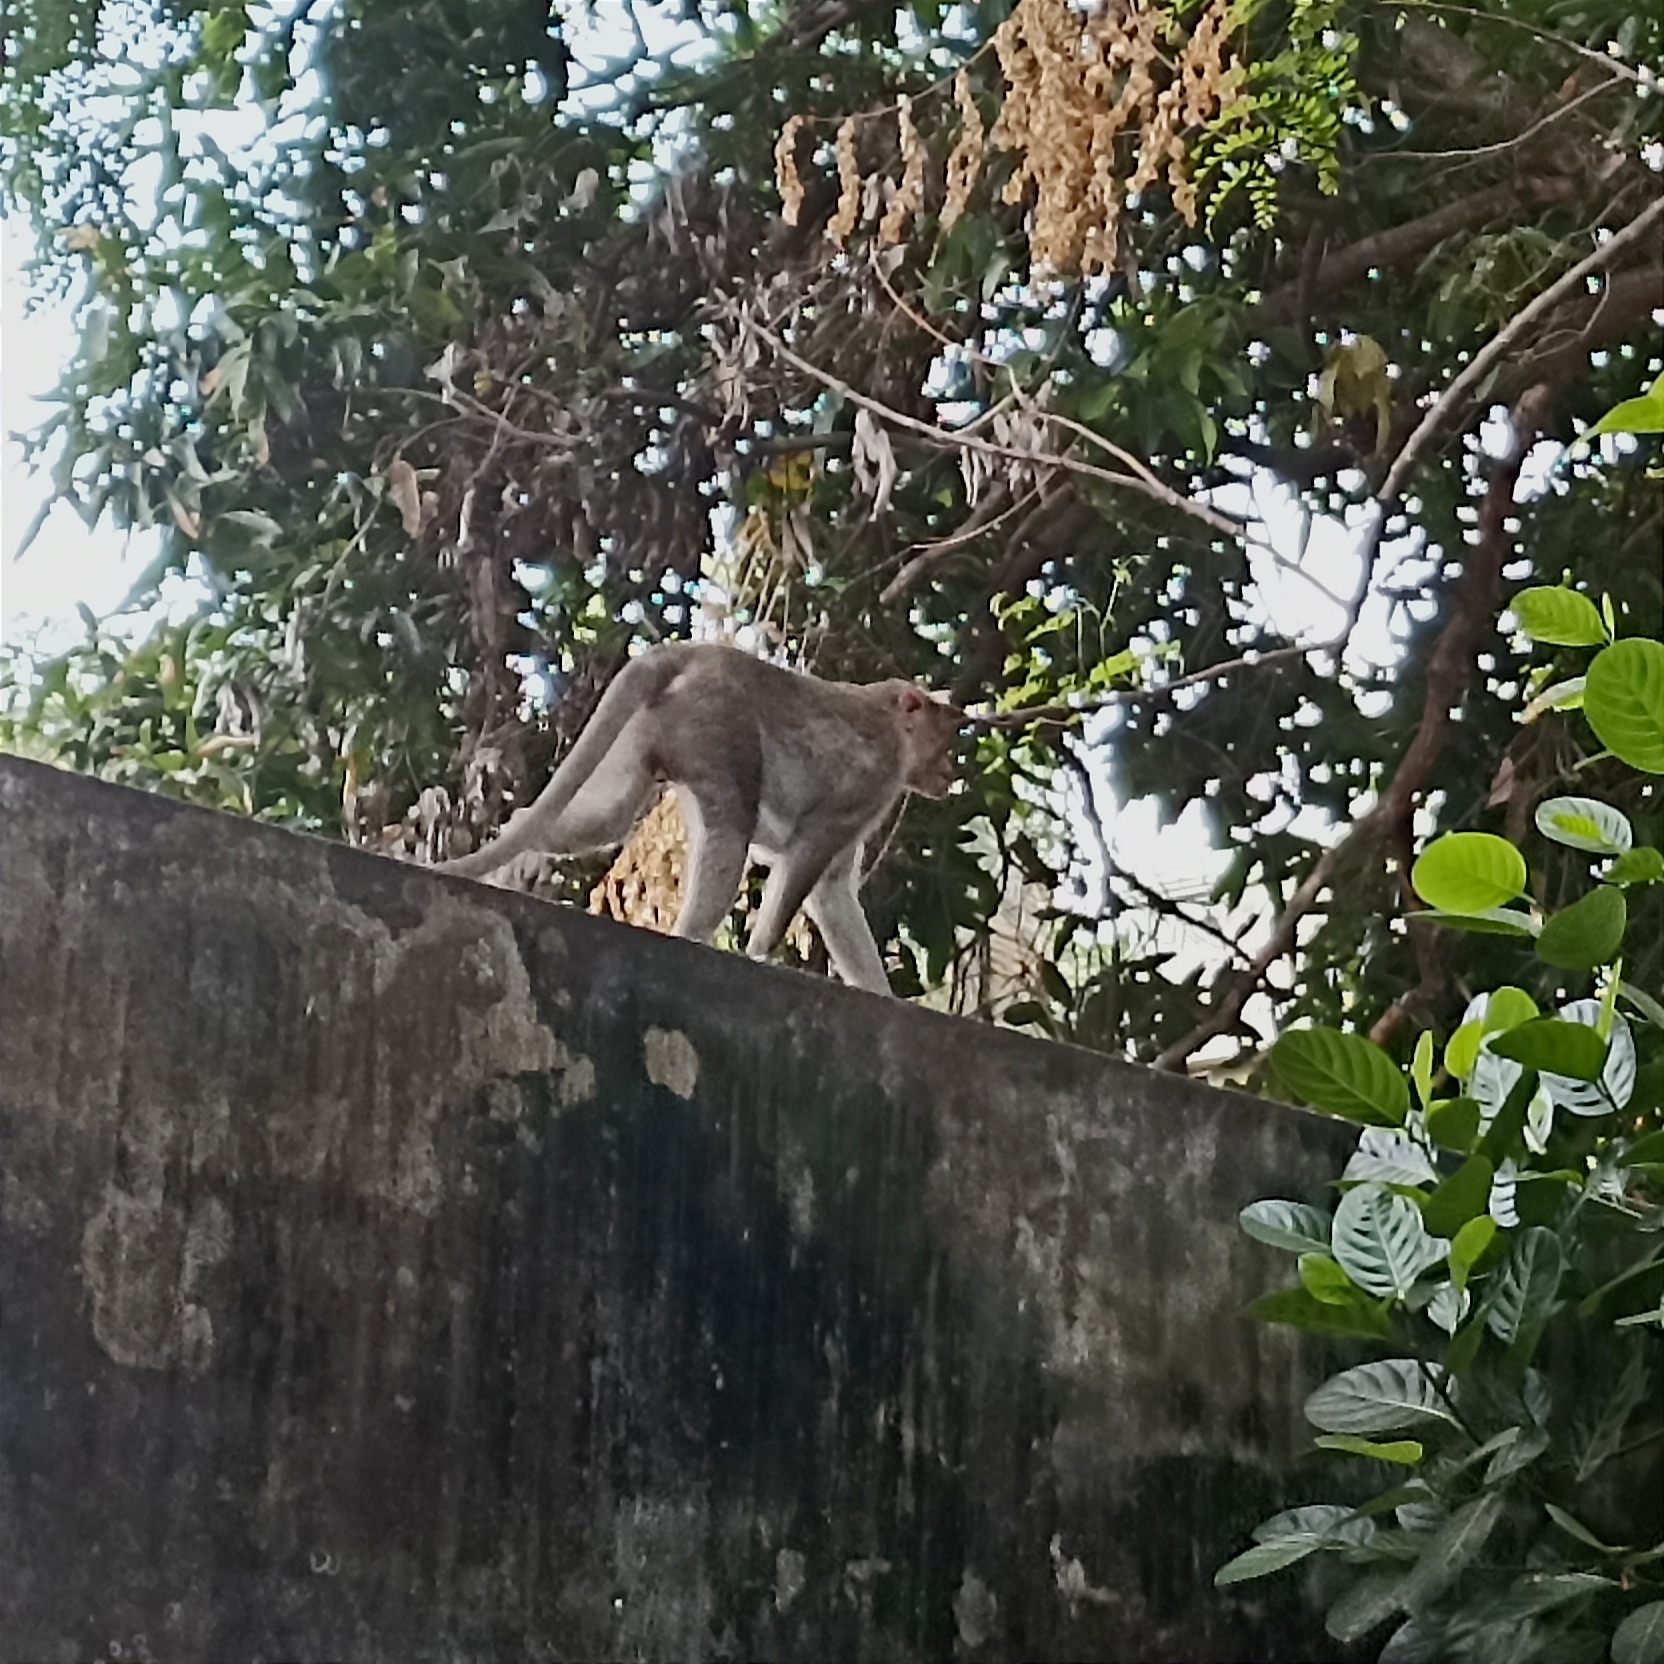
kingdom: Animalia
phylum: Chordata
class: Mammalia
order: Primates
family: Cercopithecidae
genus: Macaca
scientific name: Macaca radiata
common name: Bonnet macaque
